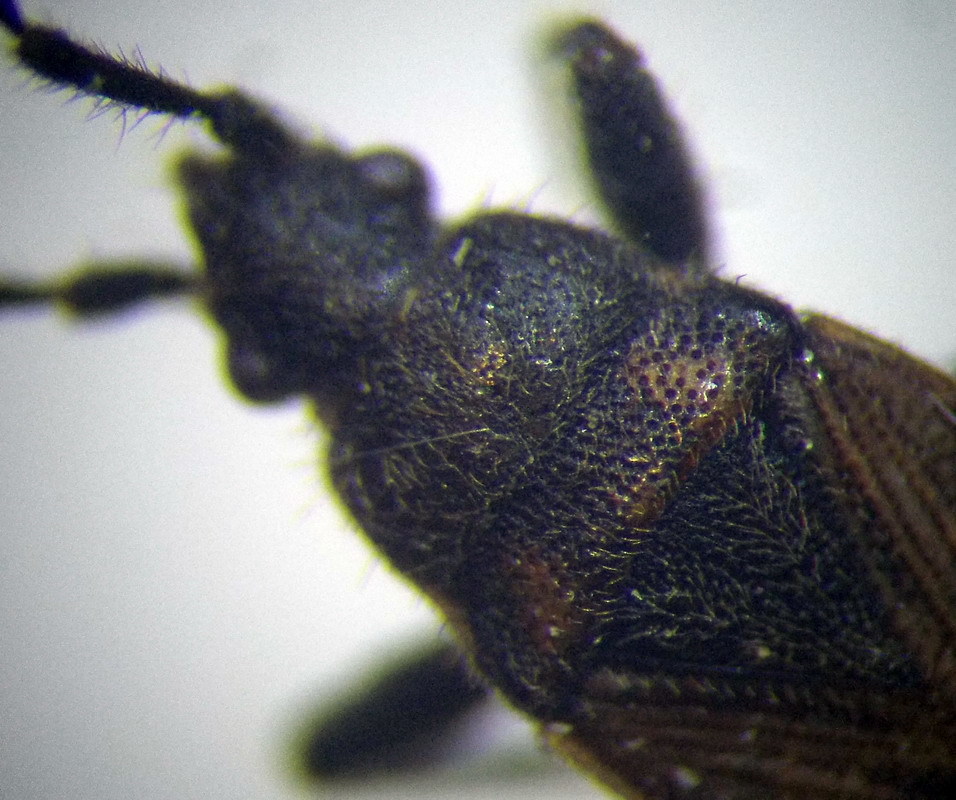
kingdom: Animalia
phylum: Arthropoda
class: Insecta
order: Hemiptera
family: Rhyparochromidae
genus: Pezocoris
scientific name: Pezocoris apicimacula
